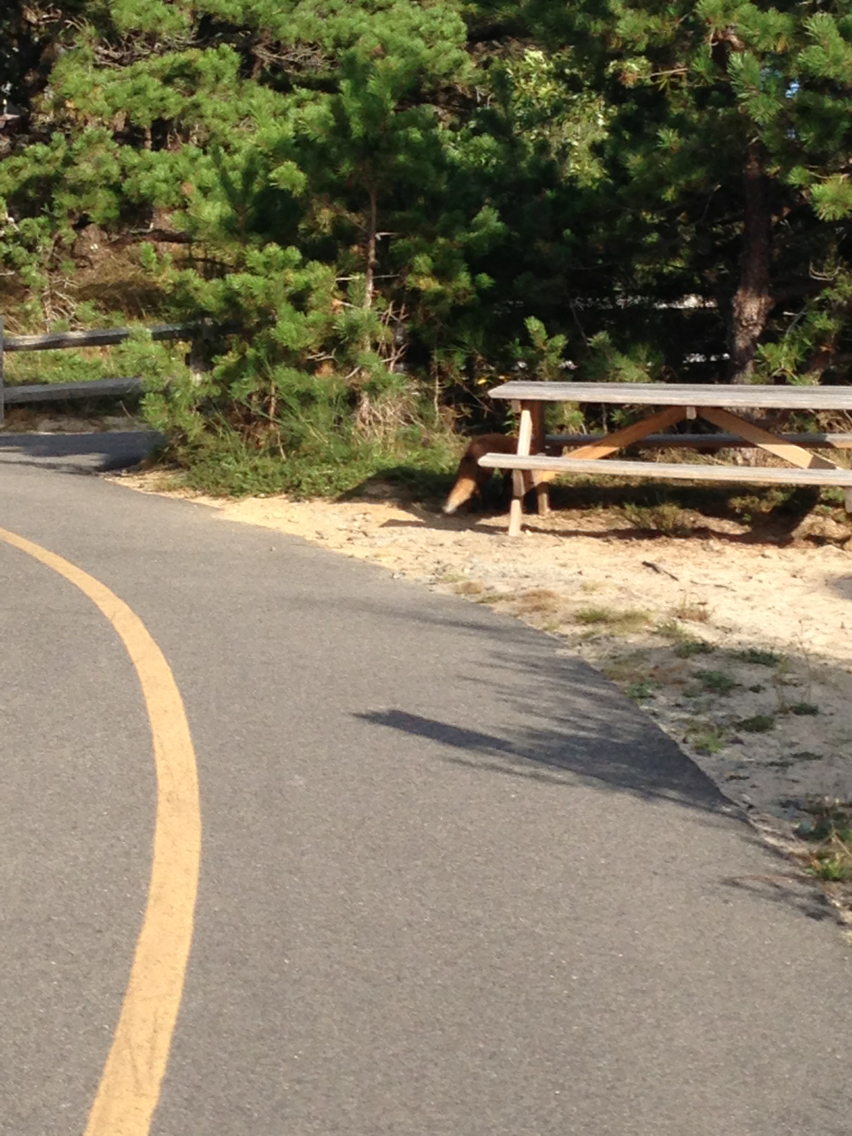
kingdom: Animalia
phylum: Chordata
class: Mammalia
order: Carnivora
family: Canidae
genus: Vulpes
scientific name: Vulpes vulpes
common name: Red fox
